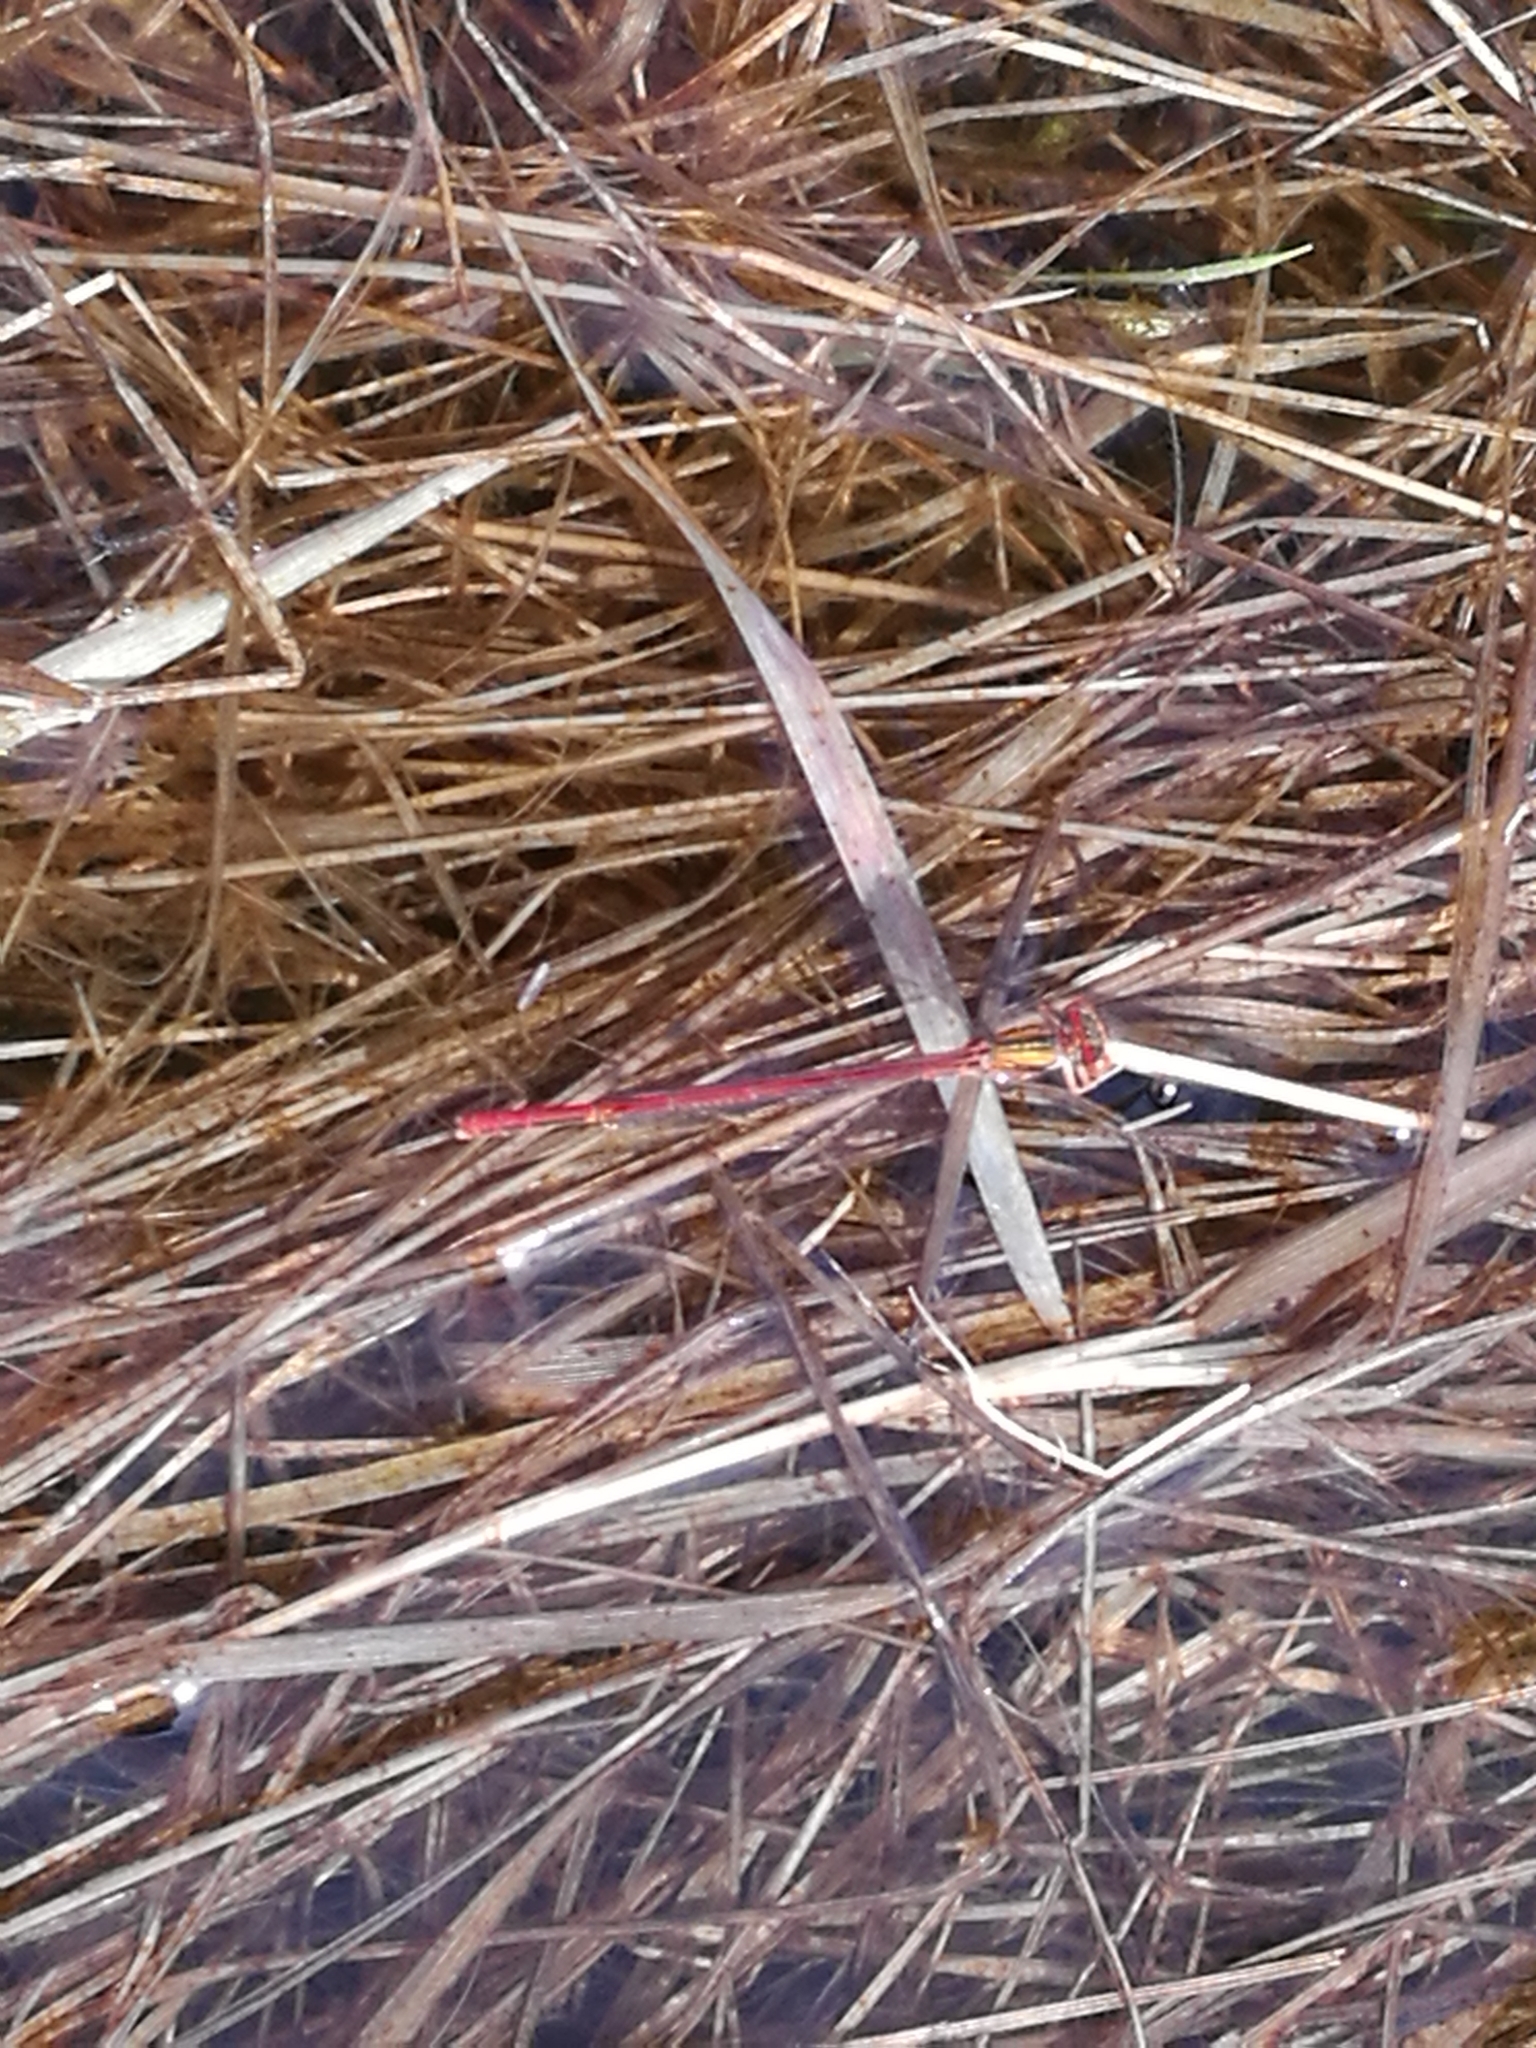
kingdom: Animalia
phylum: Arthropoda
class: Insecta
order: Odonata
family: Coenagrionidae
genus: Xanthocnemis
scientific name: Xanthocnemis zealandica
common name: Common redcoat damselfly
